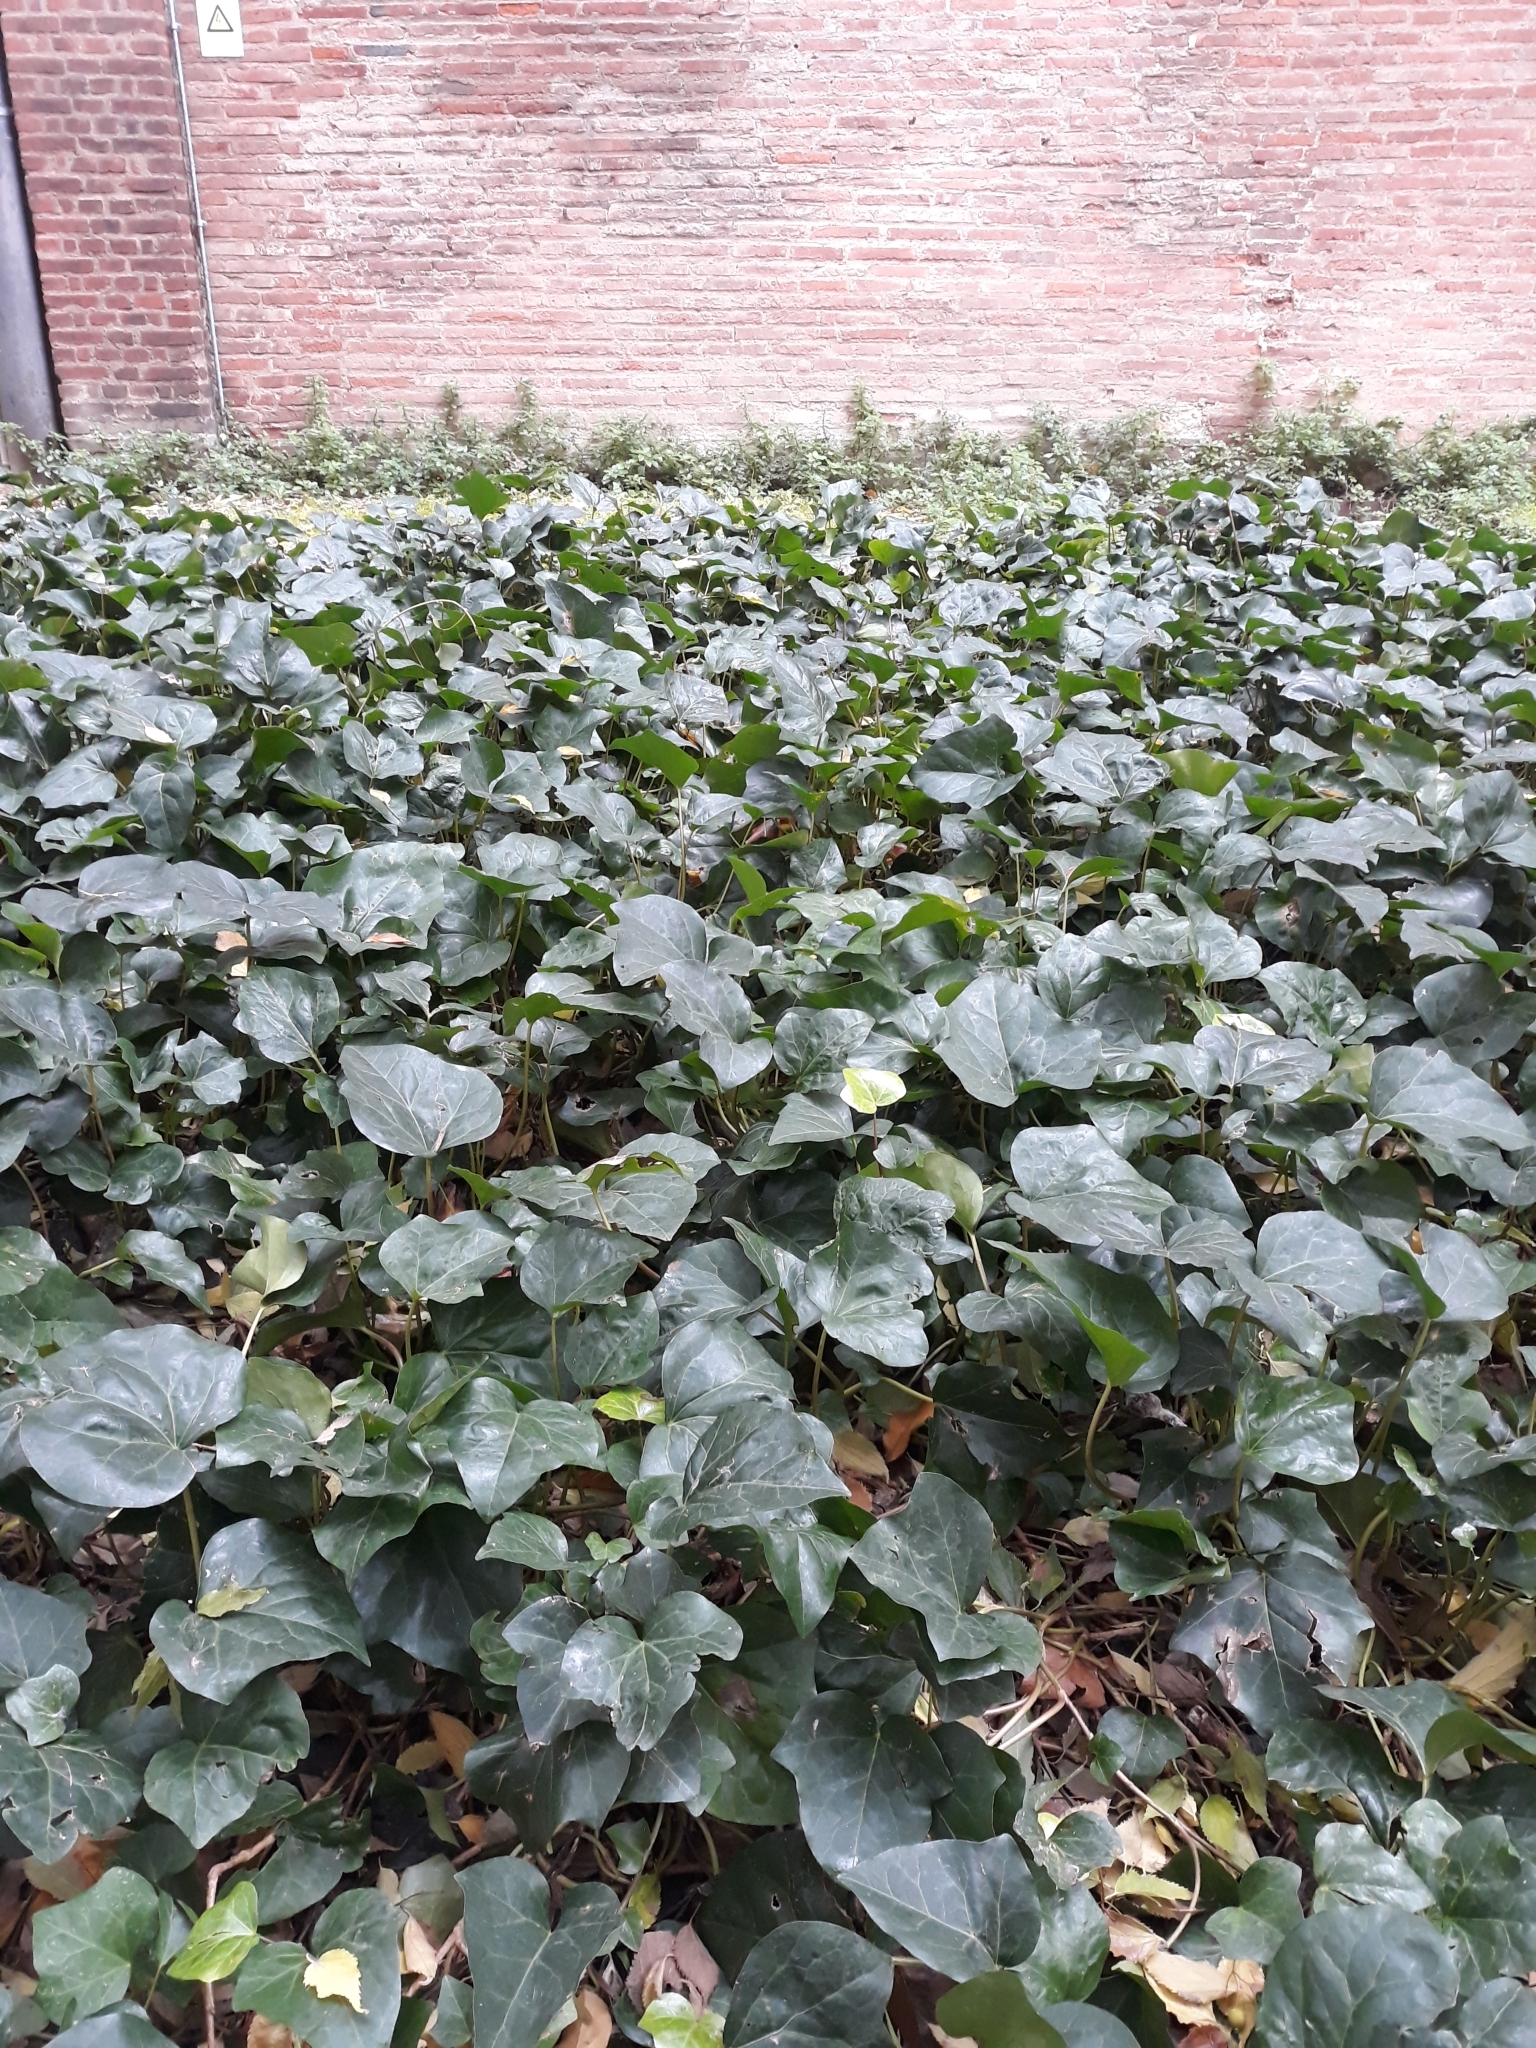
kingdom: Plantae
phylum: Tracheophyta
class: Magnoliopsida
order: Apiales
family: Araliaceae
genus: Hedera
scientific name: Hedera helix
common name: Ivy
